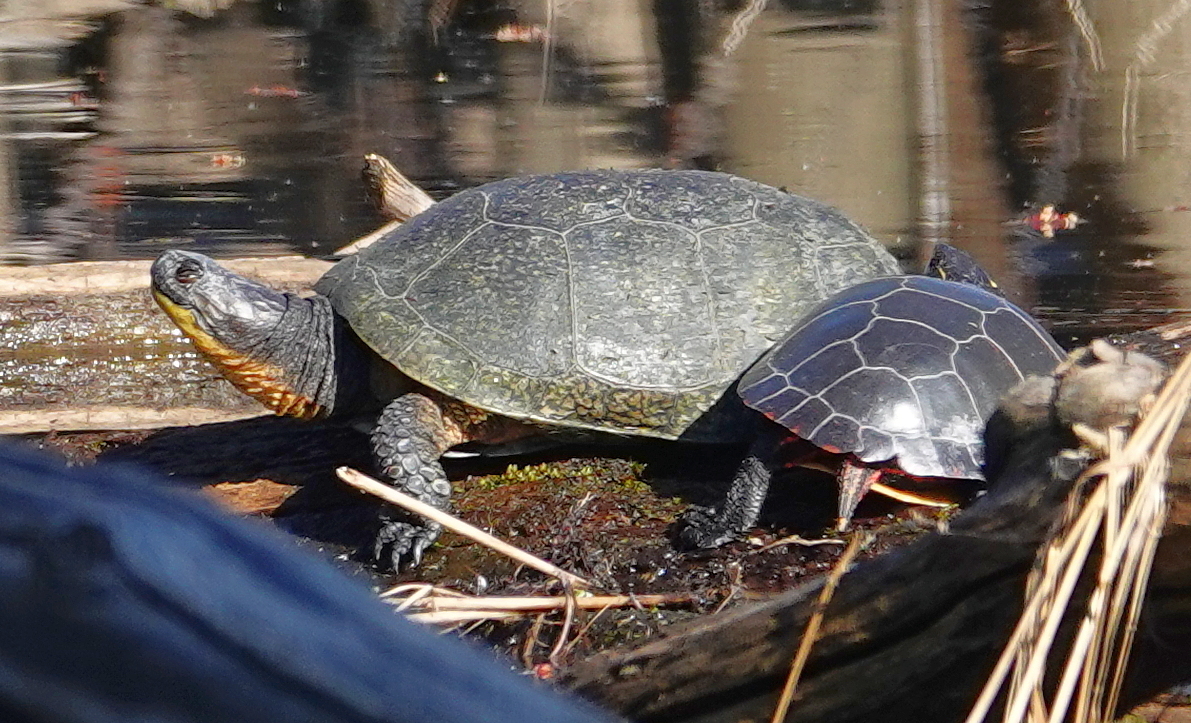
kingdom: Animalia
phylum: Chordata
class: Testudines
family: Emydidae
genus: Emys
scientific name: Emys blandingii
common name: Blanding's turtle
